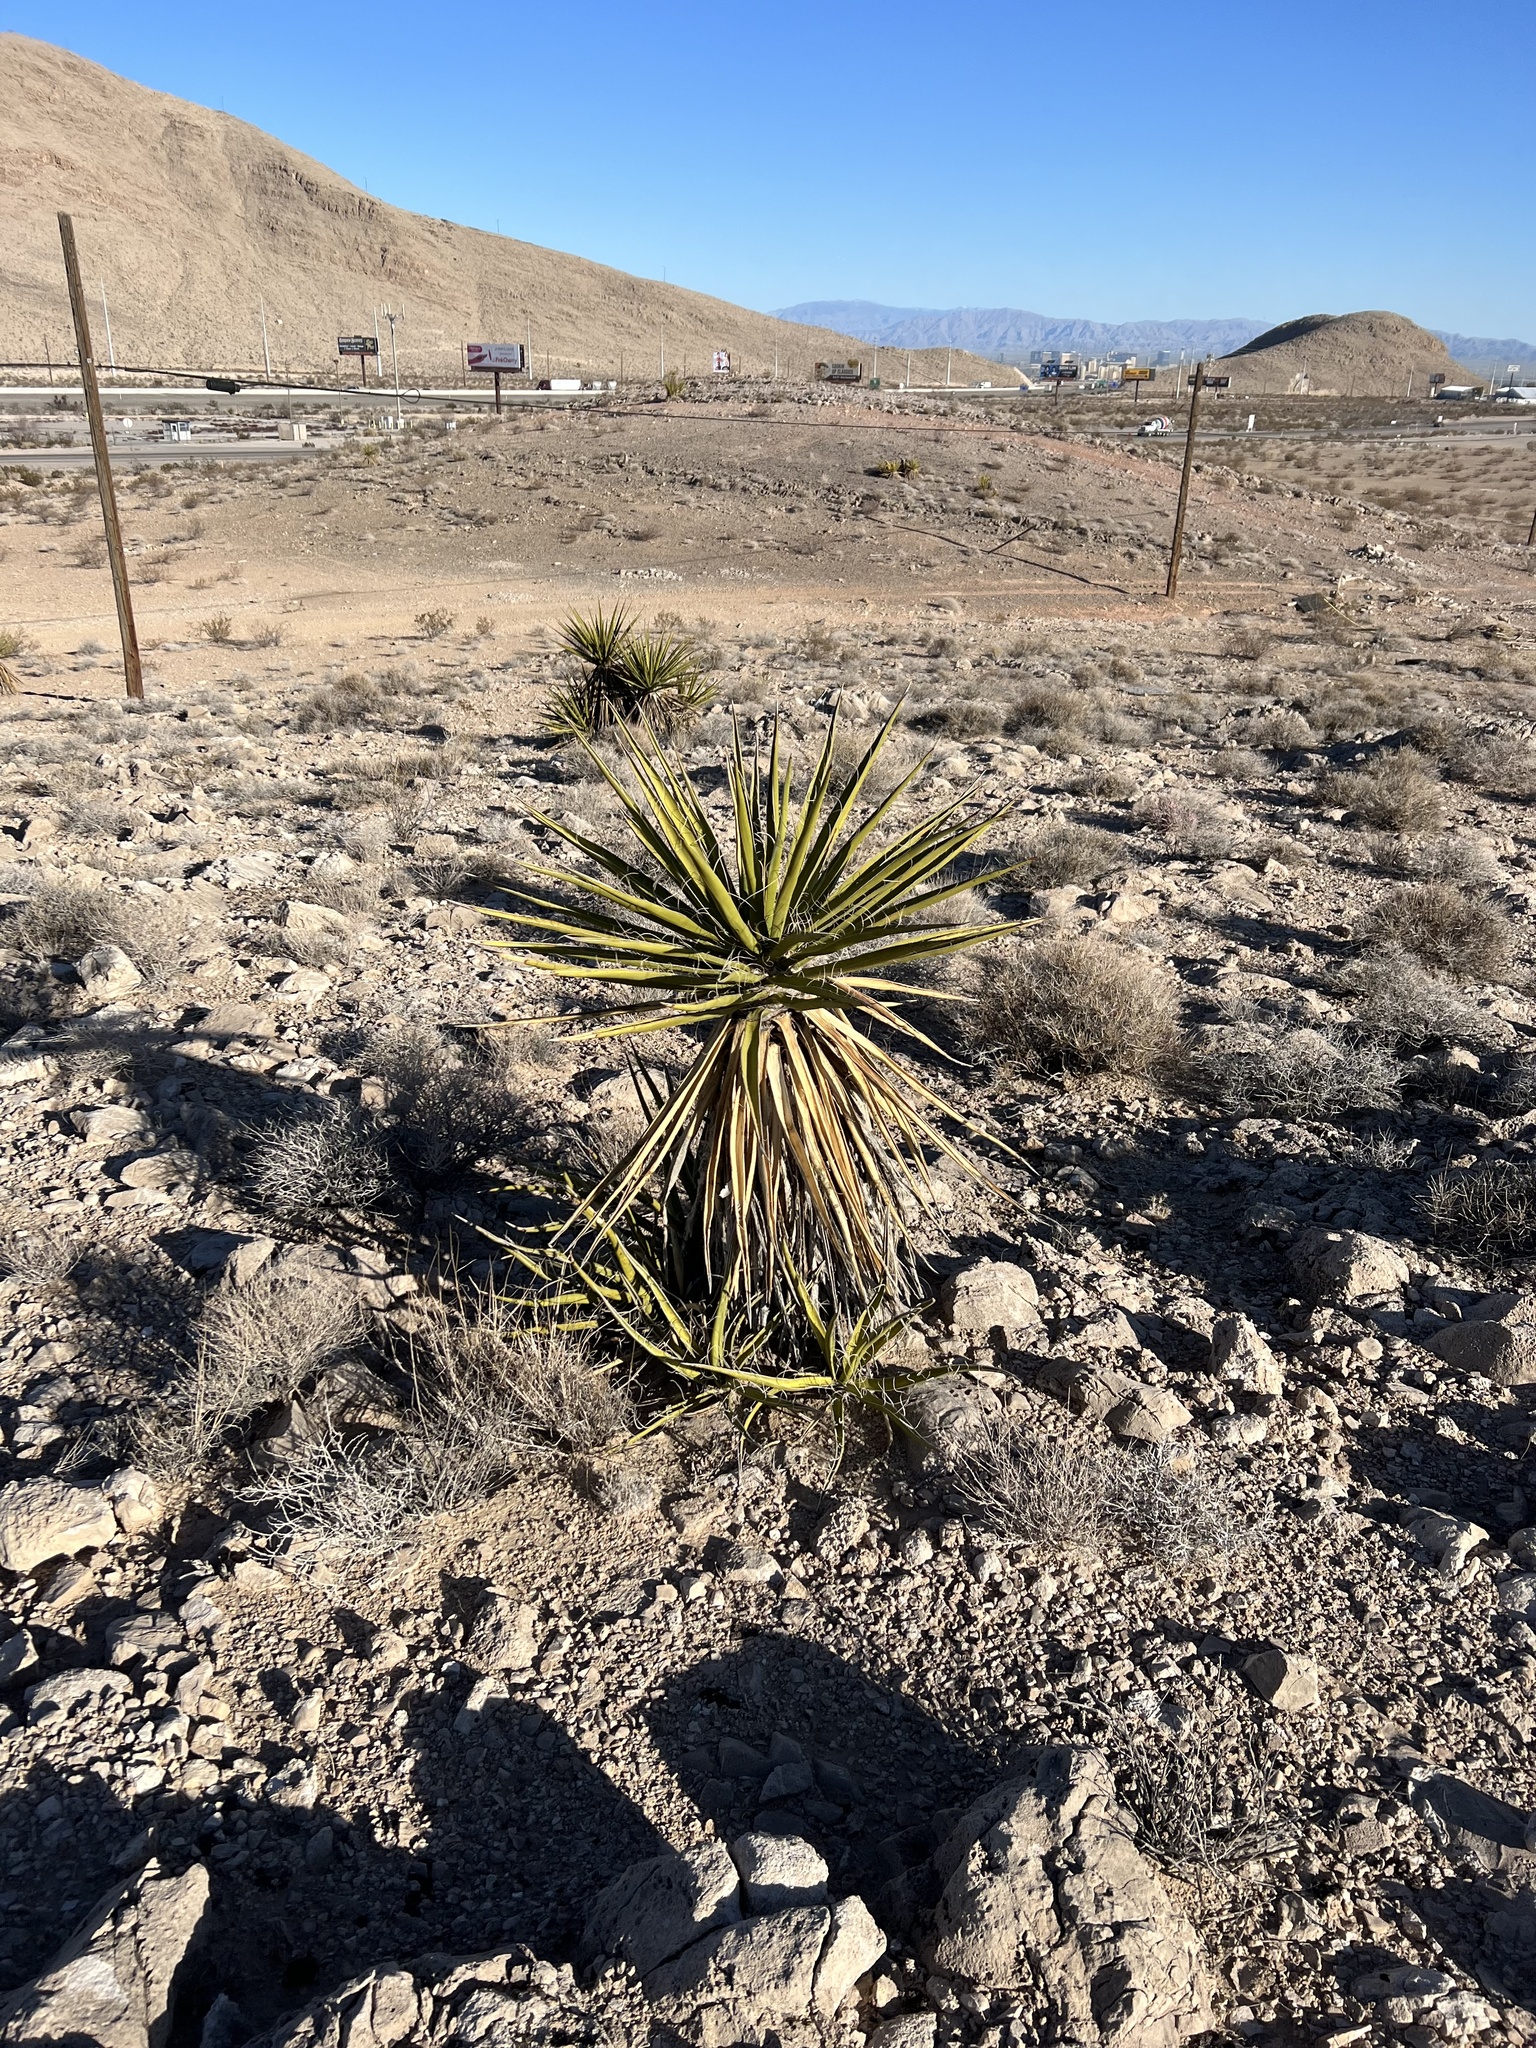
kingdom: Plantae
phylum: Tracheophyta
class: Liliopsida
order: Asparagales
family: Asparagaceae
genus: Yucca
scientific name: Yucca schidigera
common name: Mojave yucca
